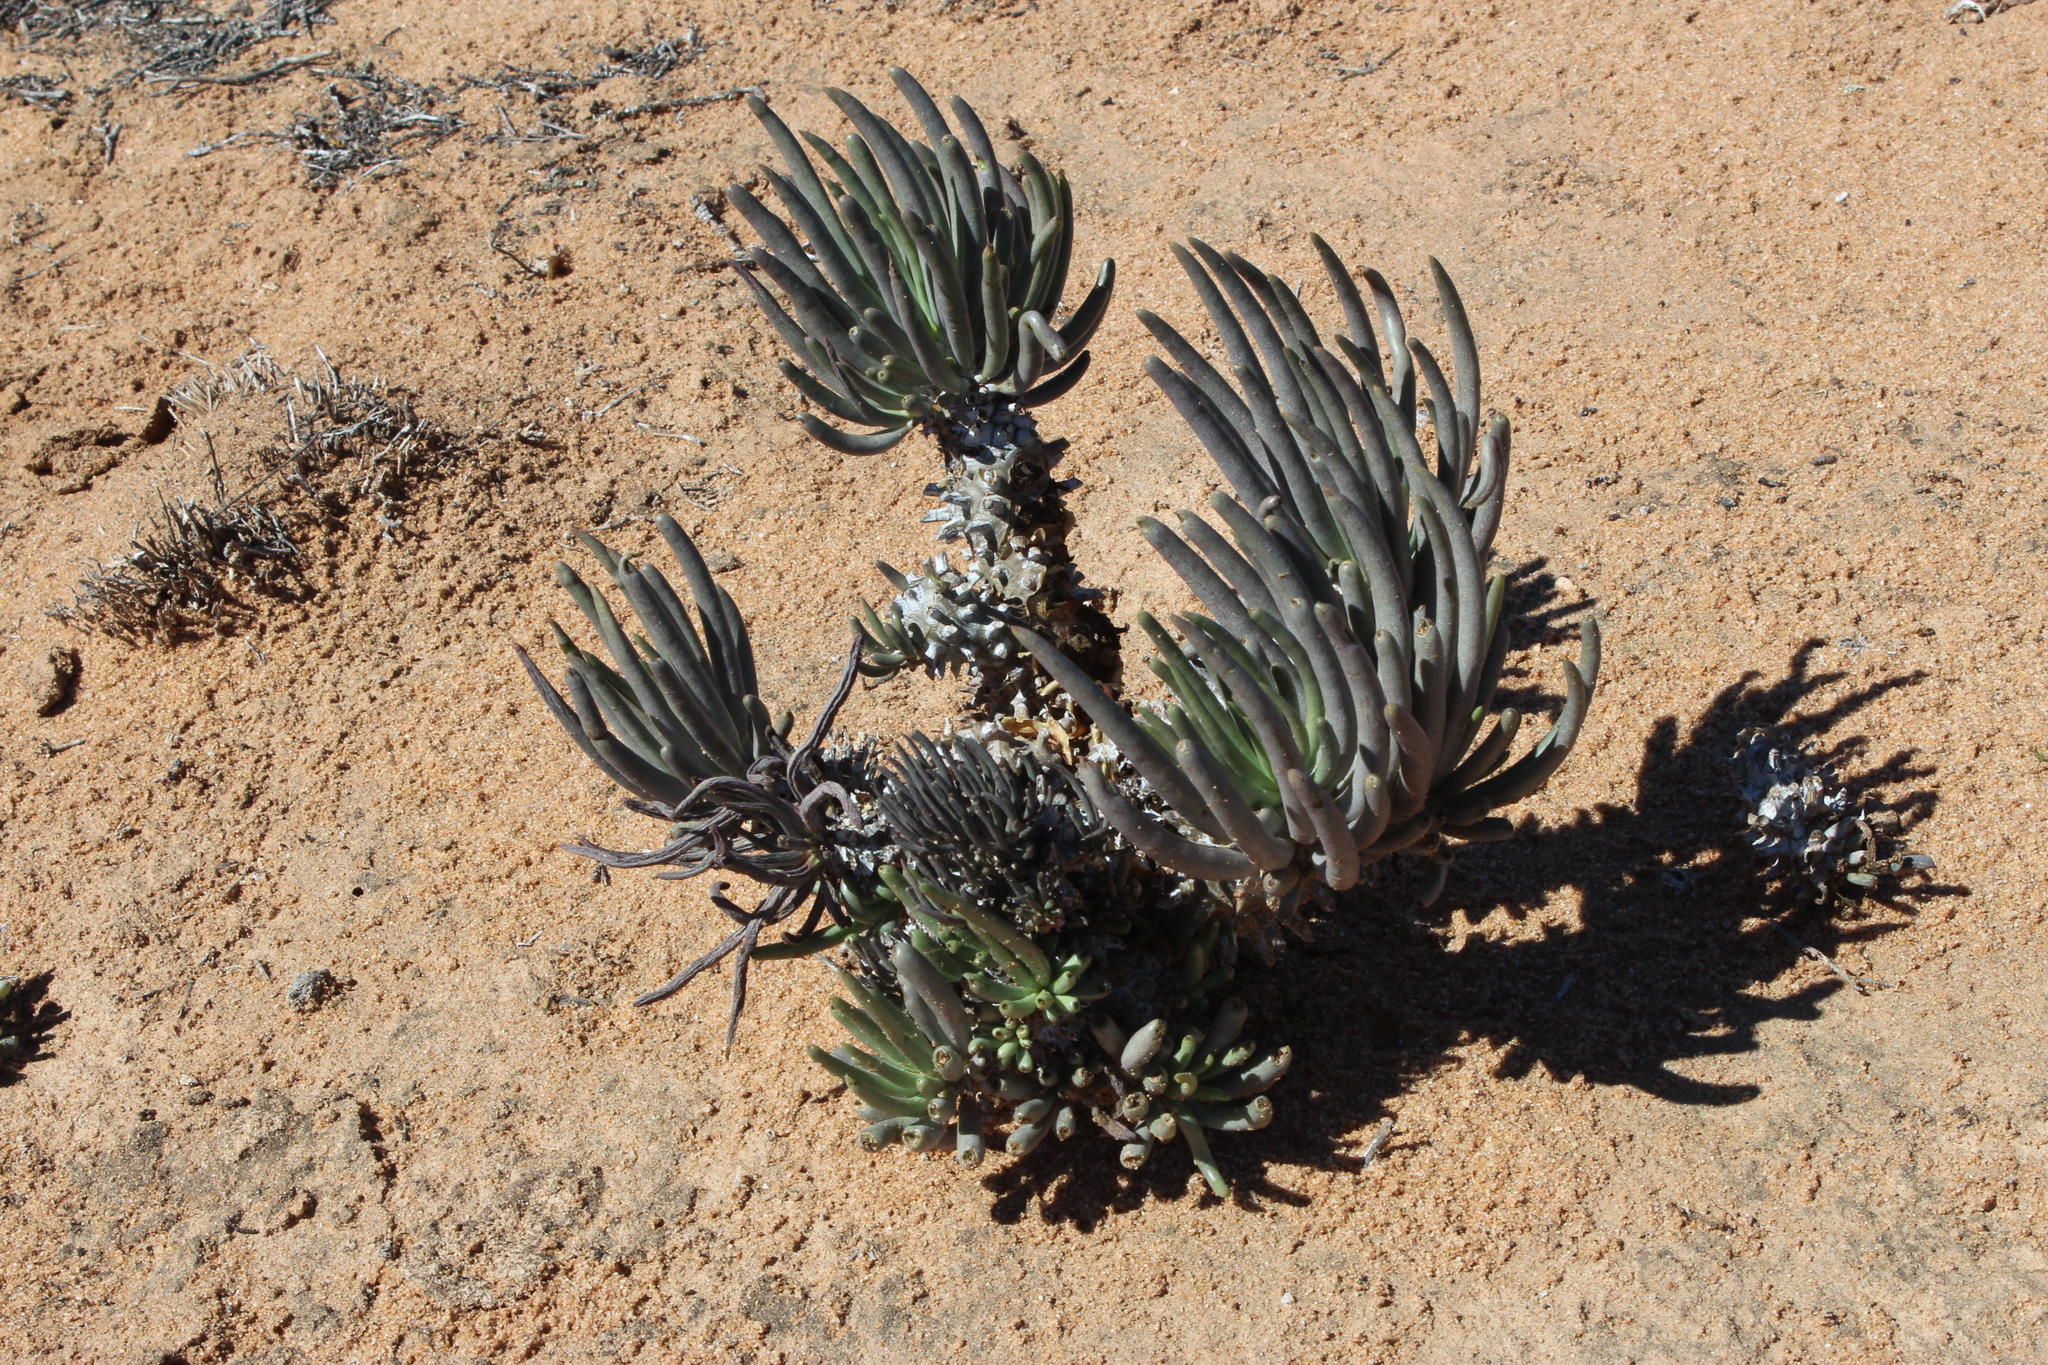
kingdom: Plantae
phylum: Tracheophyta
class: Magnoliopsida
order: Saxifragales
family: Crassulaceae
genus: Tylecodon
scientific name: Tylecodon wallichii
